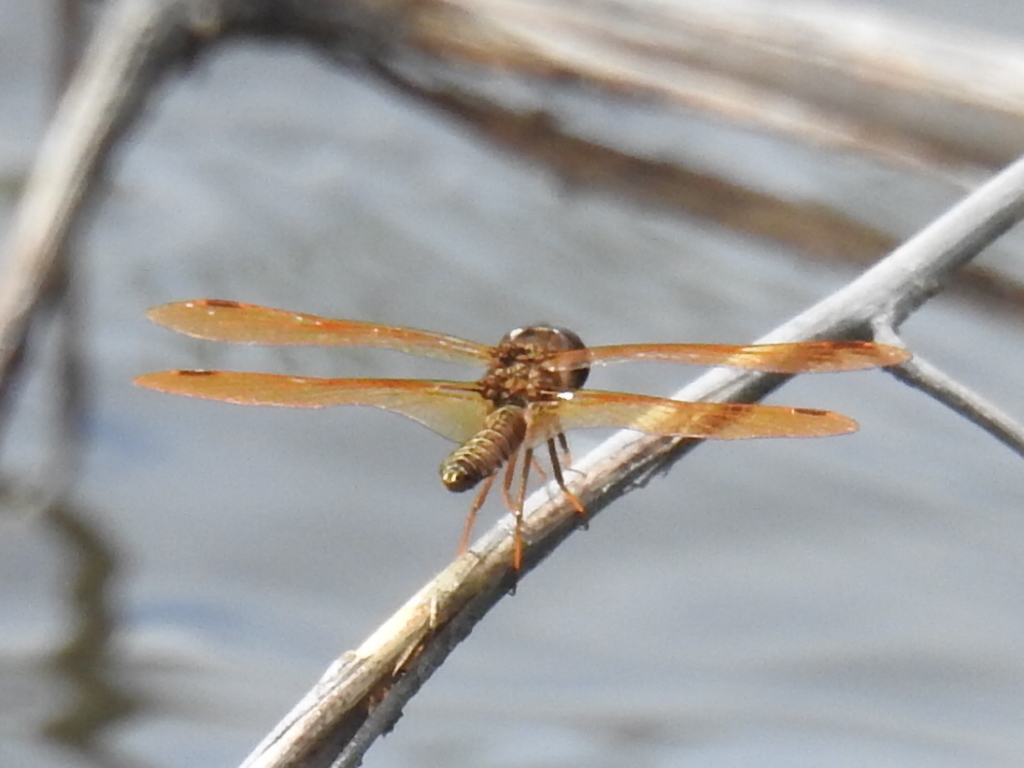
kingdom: Animalia
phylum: Arthropoda
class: Insecta
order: Odonata
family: Libellulidae
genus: Perithemis
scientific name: Perithemis tenera
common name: Eastern amberwing
